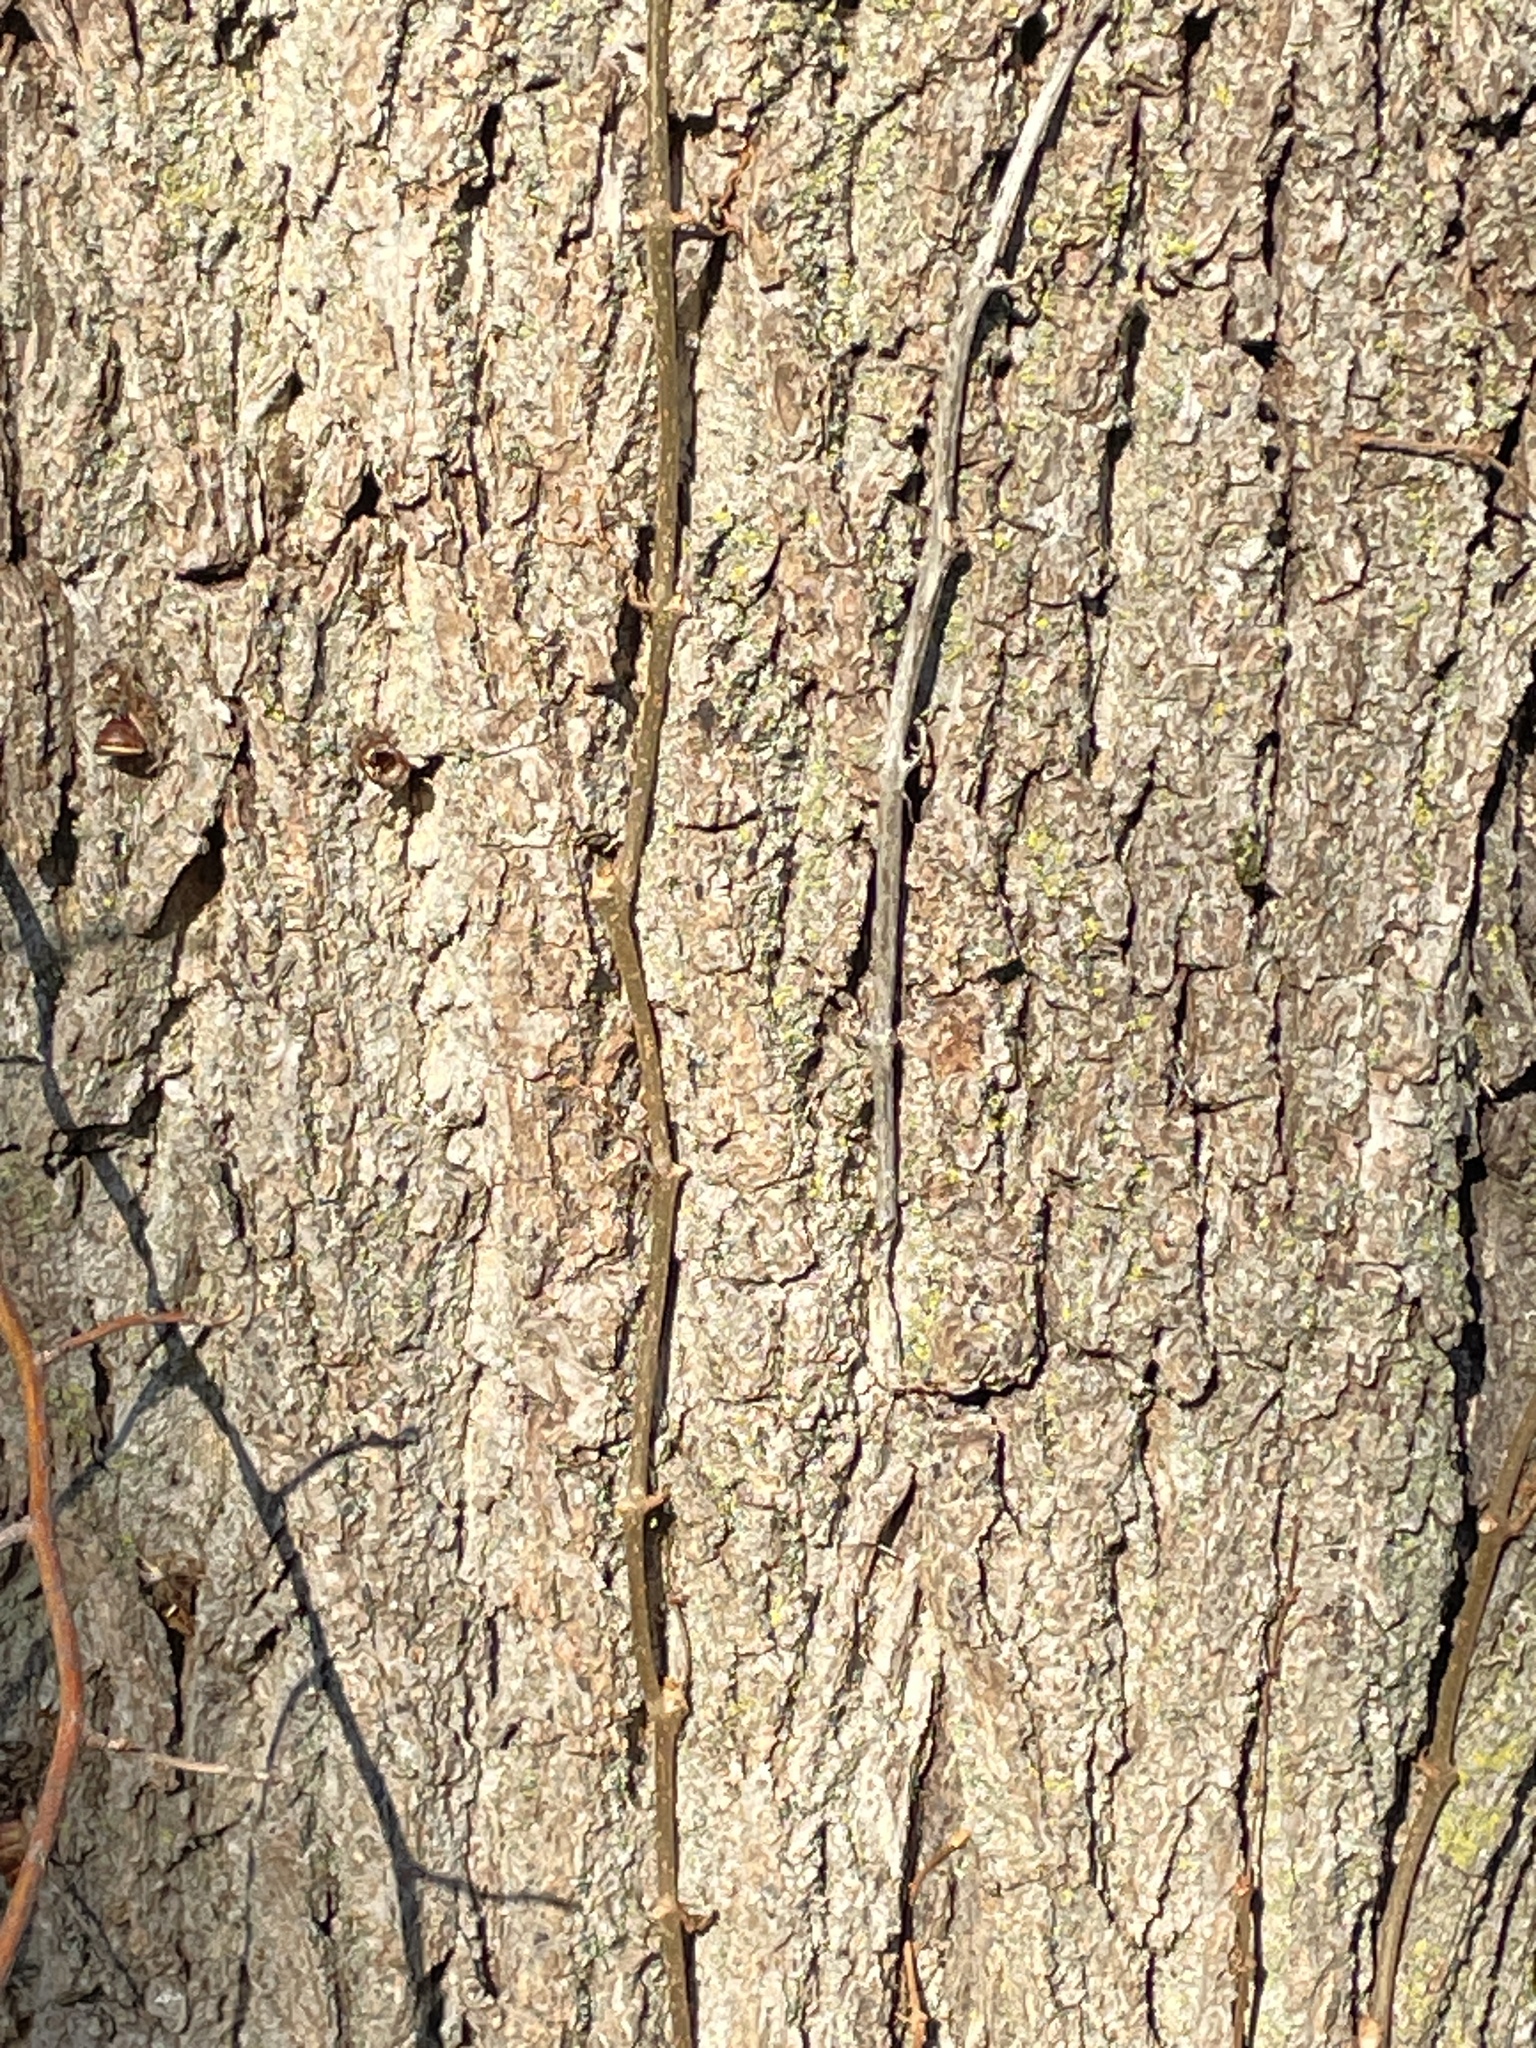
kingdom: Plantae
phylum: Tracheophyta
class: Magnoliopsida
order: Vitales
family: Vitaceae
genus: Parthenocissus
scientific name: Parthenocissus quinquefolia
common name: Virginia-creeper
